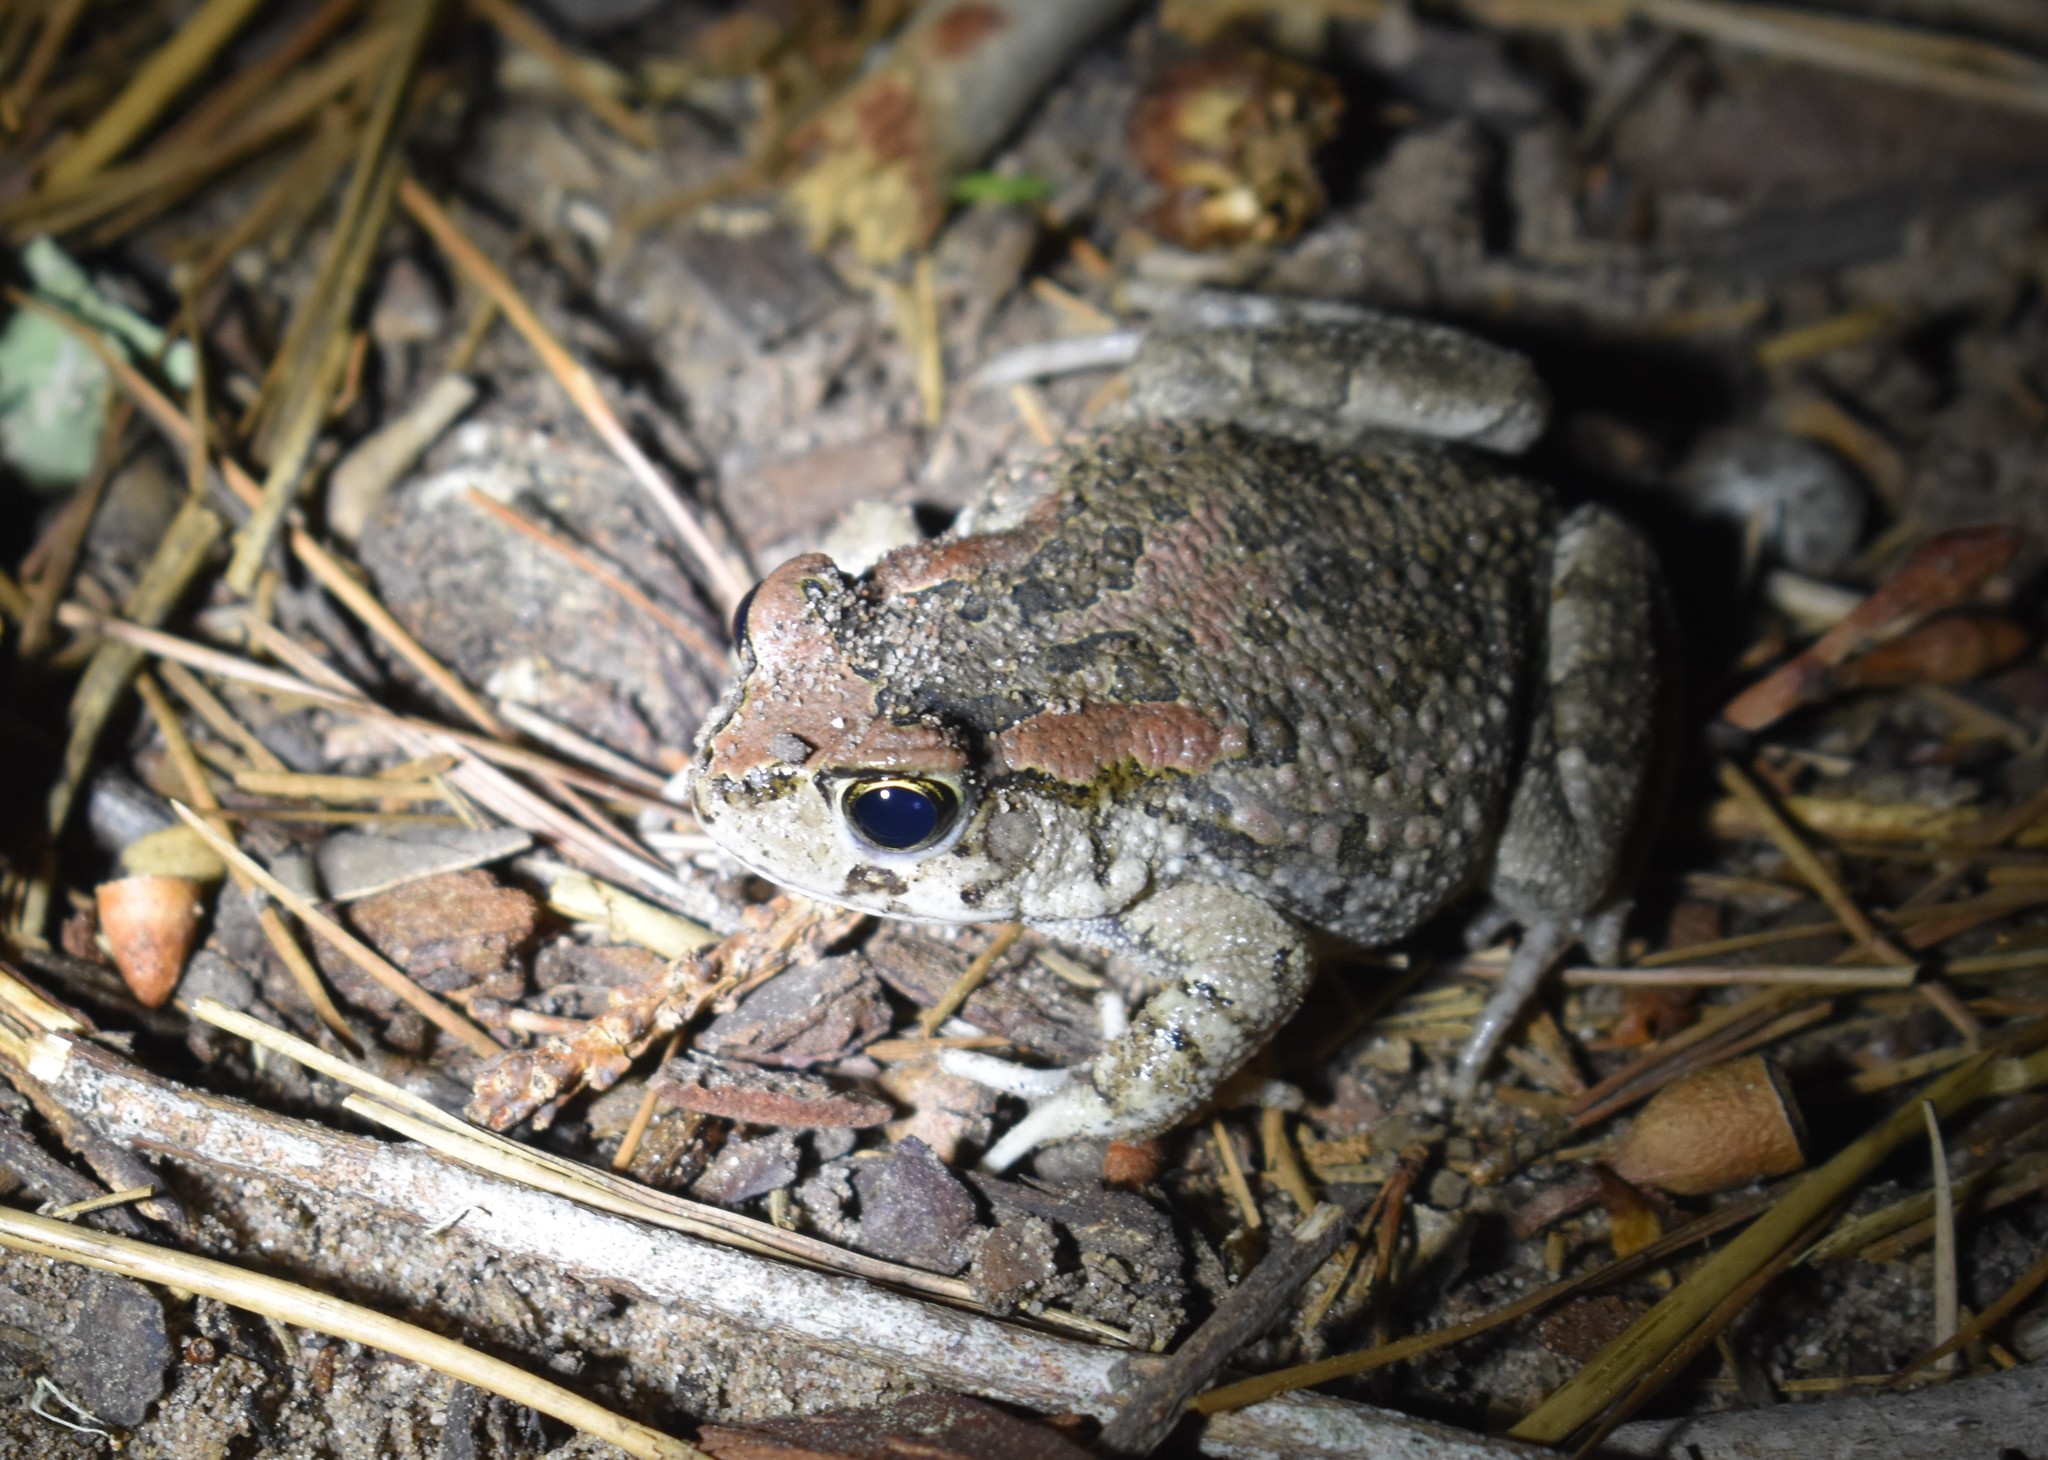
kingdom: Animalia
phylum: Chordata
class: Amphibia
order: Anura
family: Bufonidae
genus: Sclerophrys
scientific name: Sclerophrys capensis
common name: Ranger’s toad
